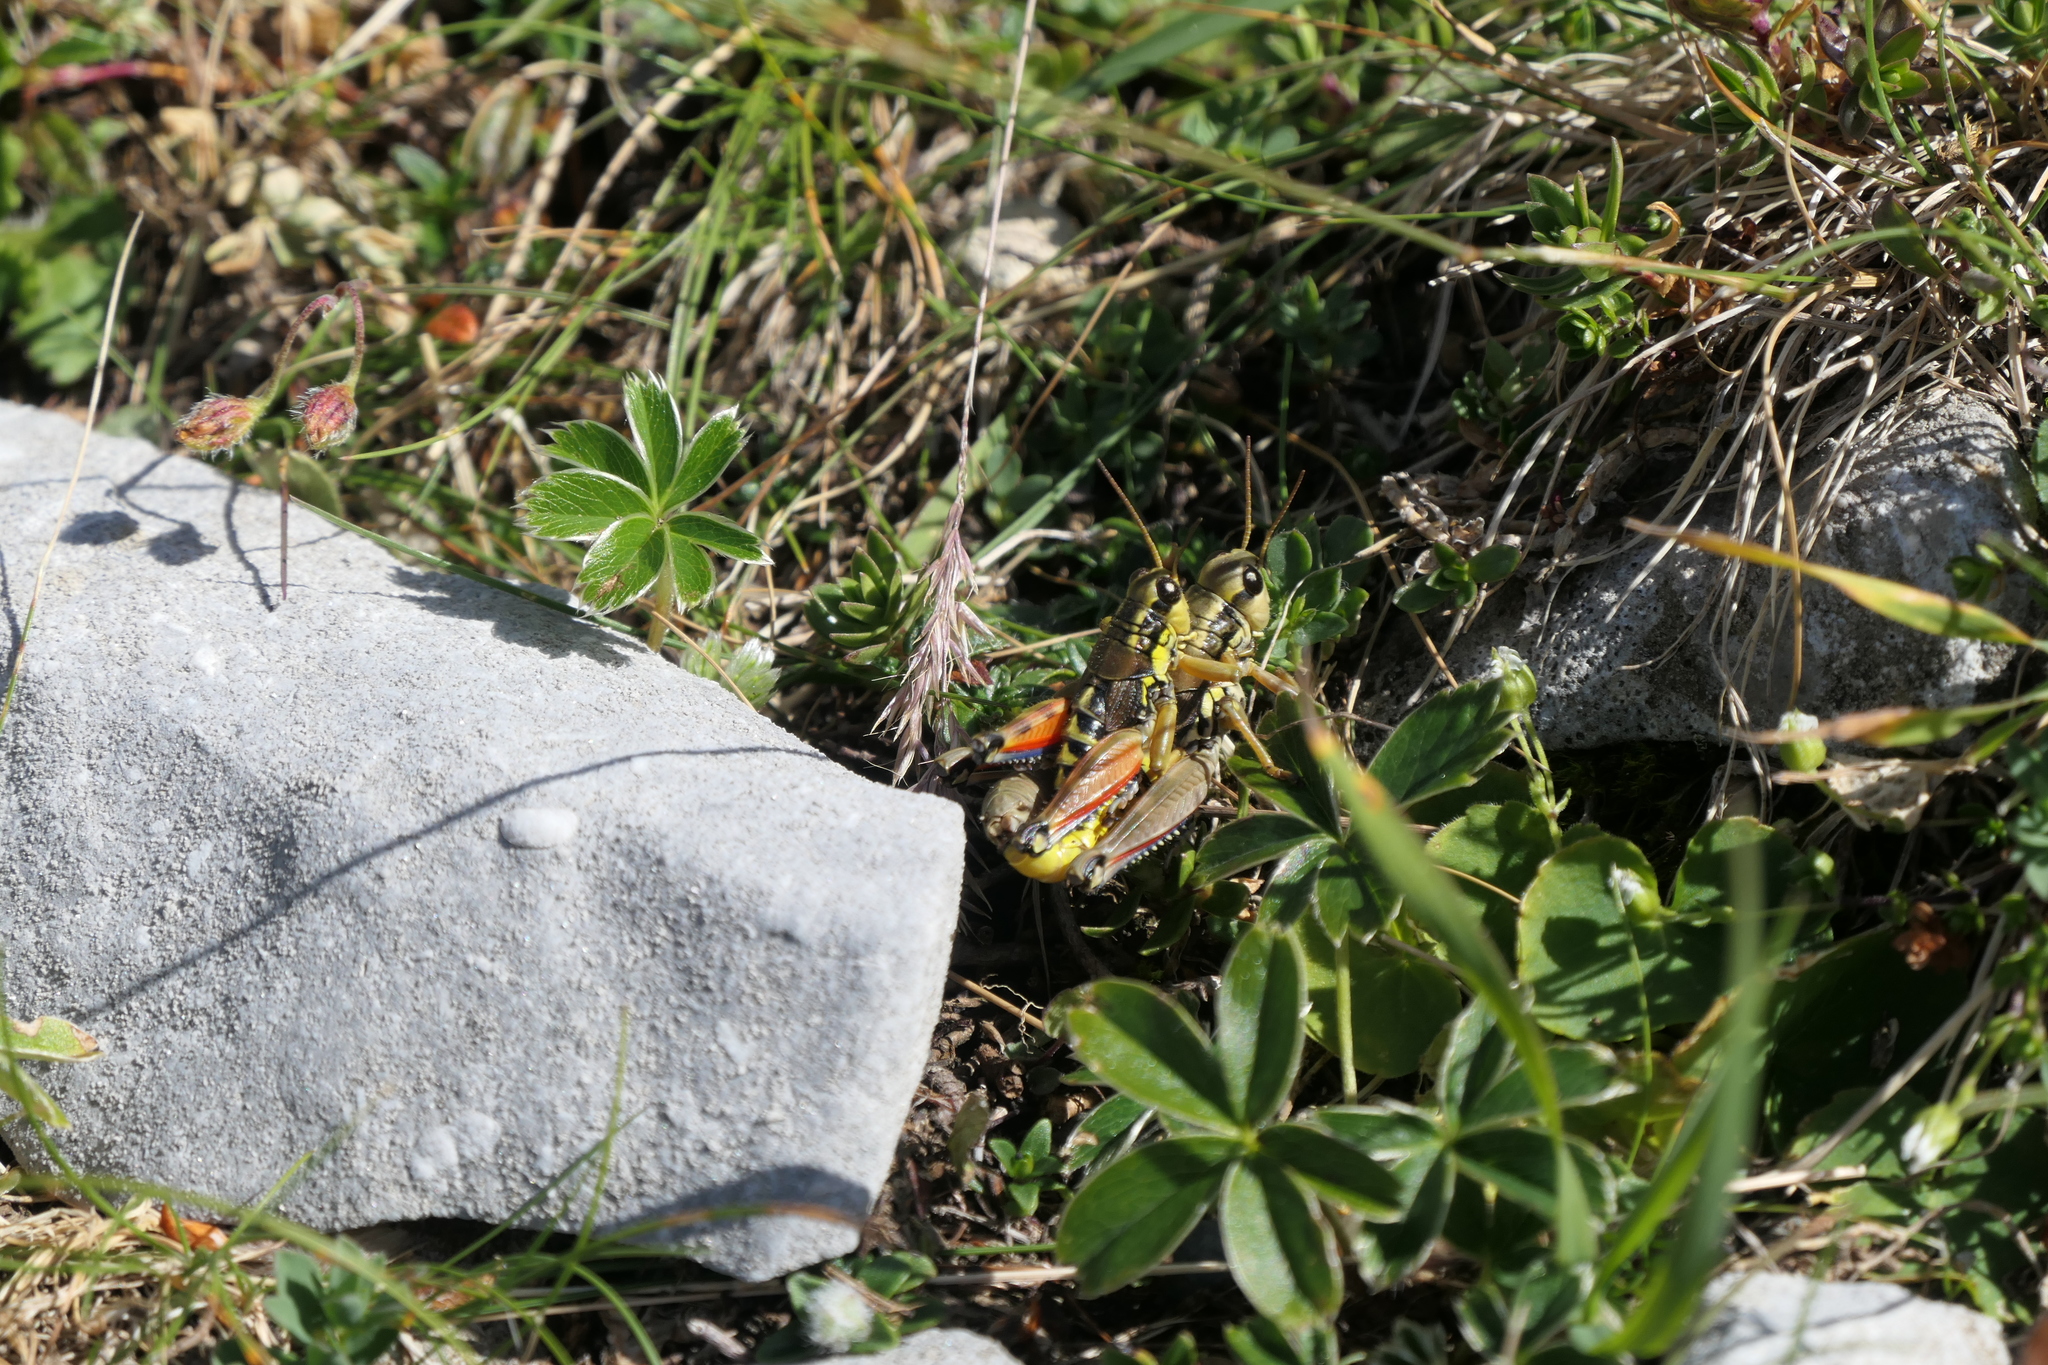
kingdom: Animalia
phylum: Arthropoda
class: Insecta
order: Orthoptera
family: Acrididae
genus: Podisma
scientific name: Podisma pedestris
